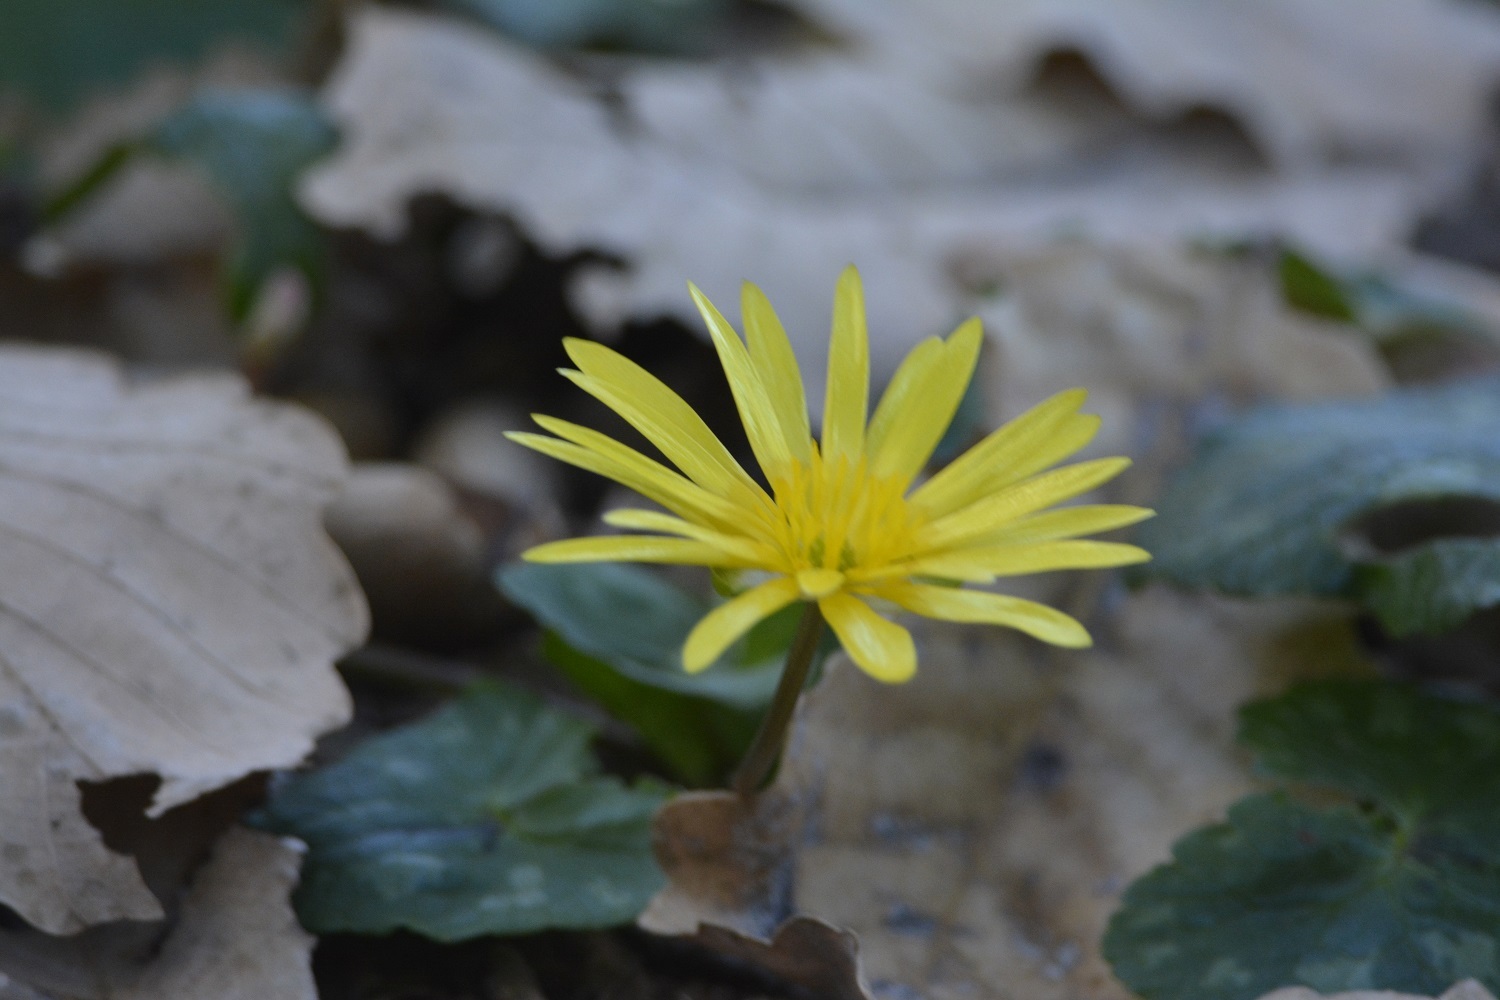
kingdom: Plantae
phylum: Tracheophyta
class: Magnoliopsida
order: Ranunculales
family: Ranunculaceae
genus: Ficaria
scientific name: Ficaria grandiflora
